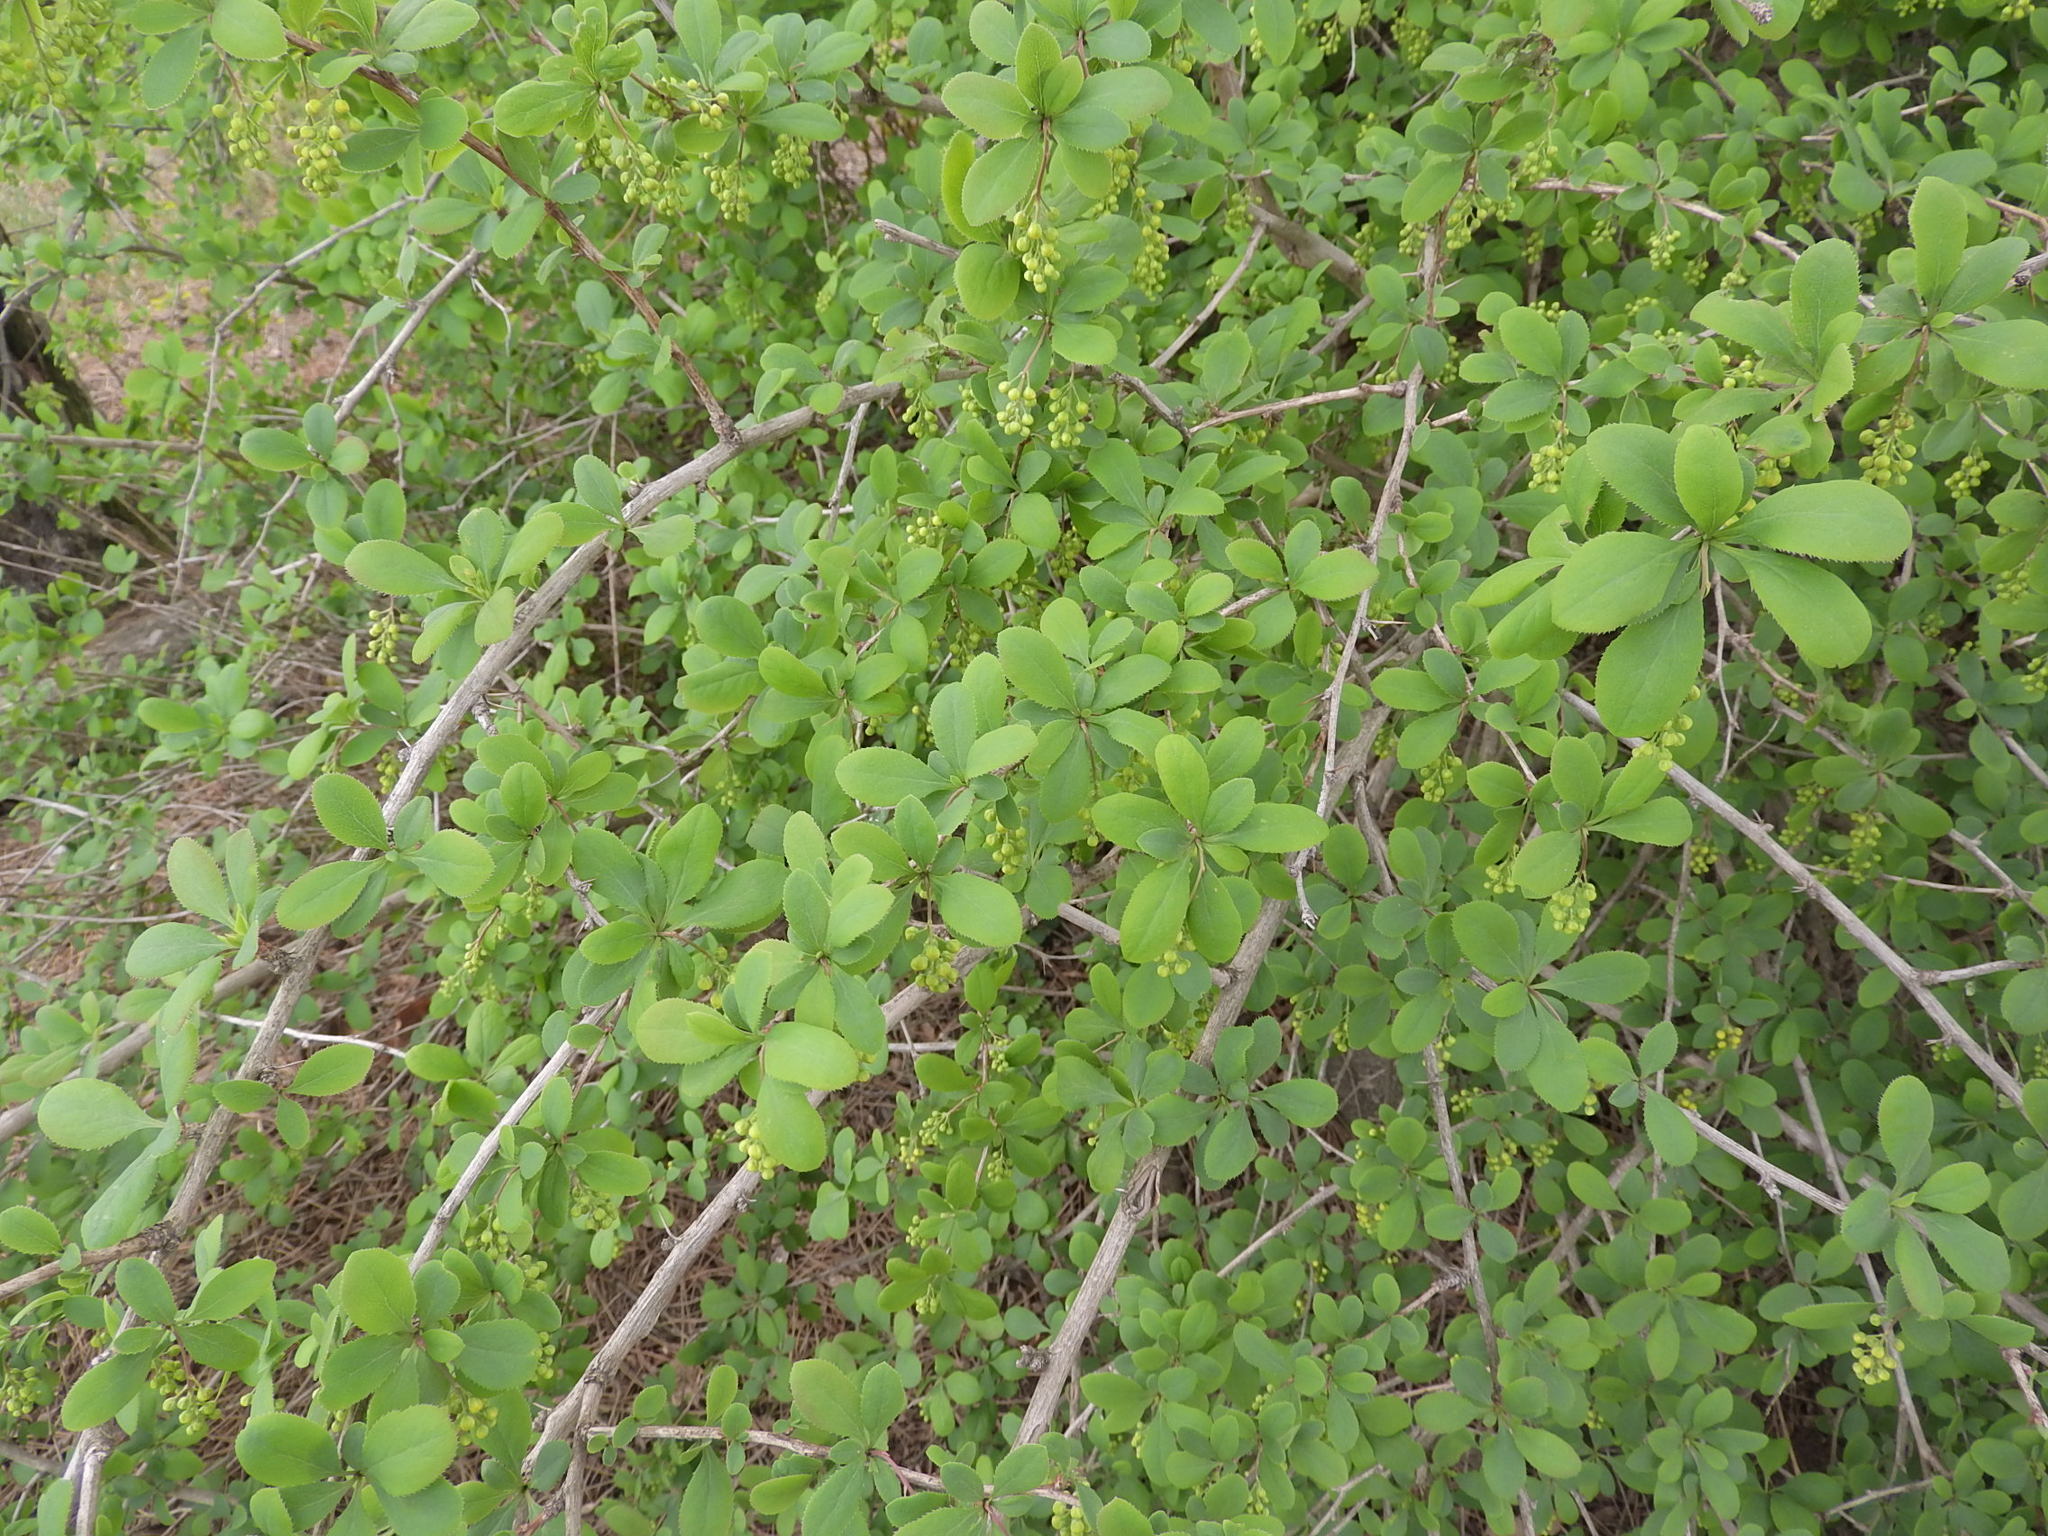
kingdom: Plantae
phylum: Tracheophyta
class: Magnoliopsida
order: Ranunculales
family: Berberidaceae
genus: Berberis
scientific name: Berberis vulgaris
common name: Barberry
